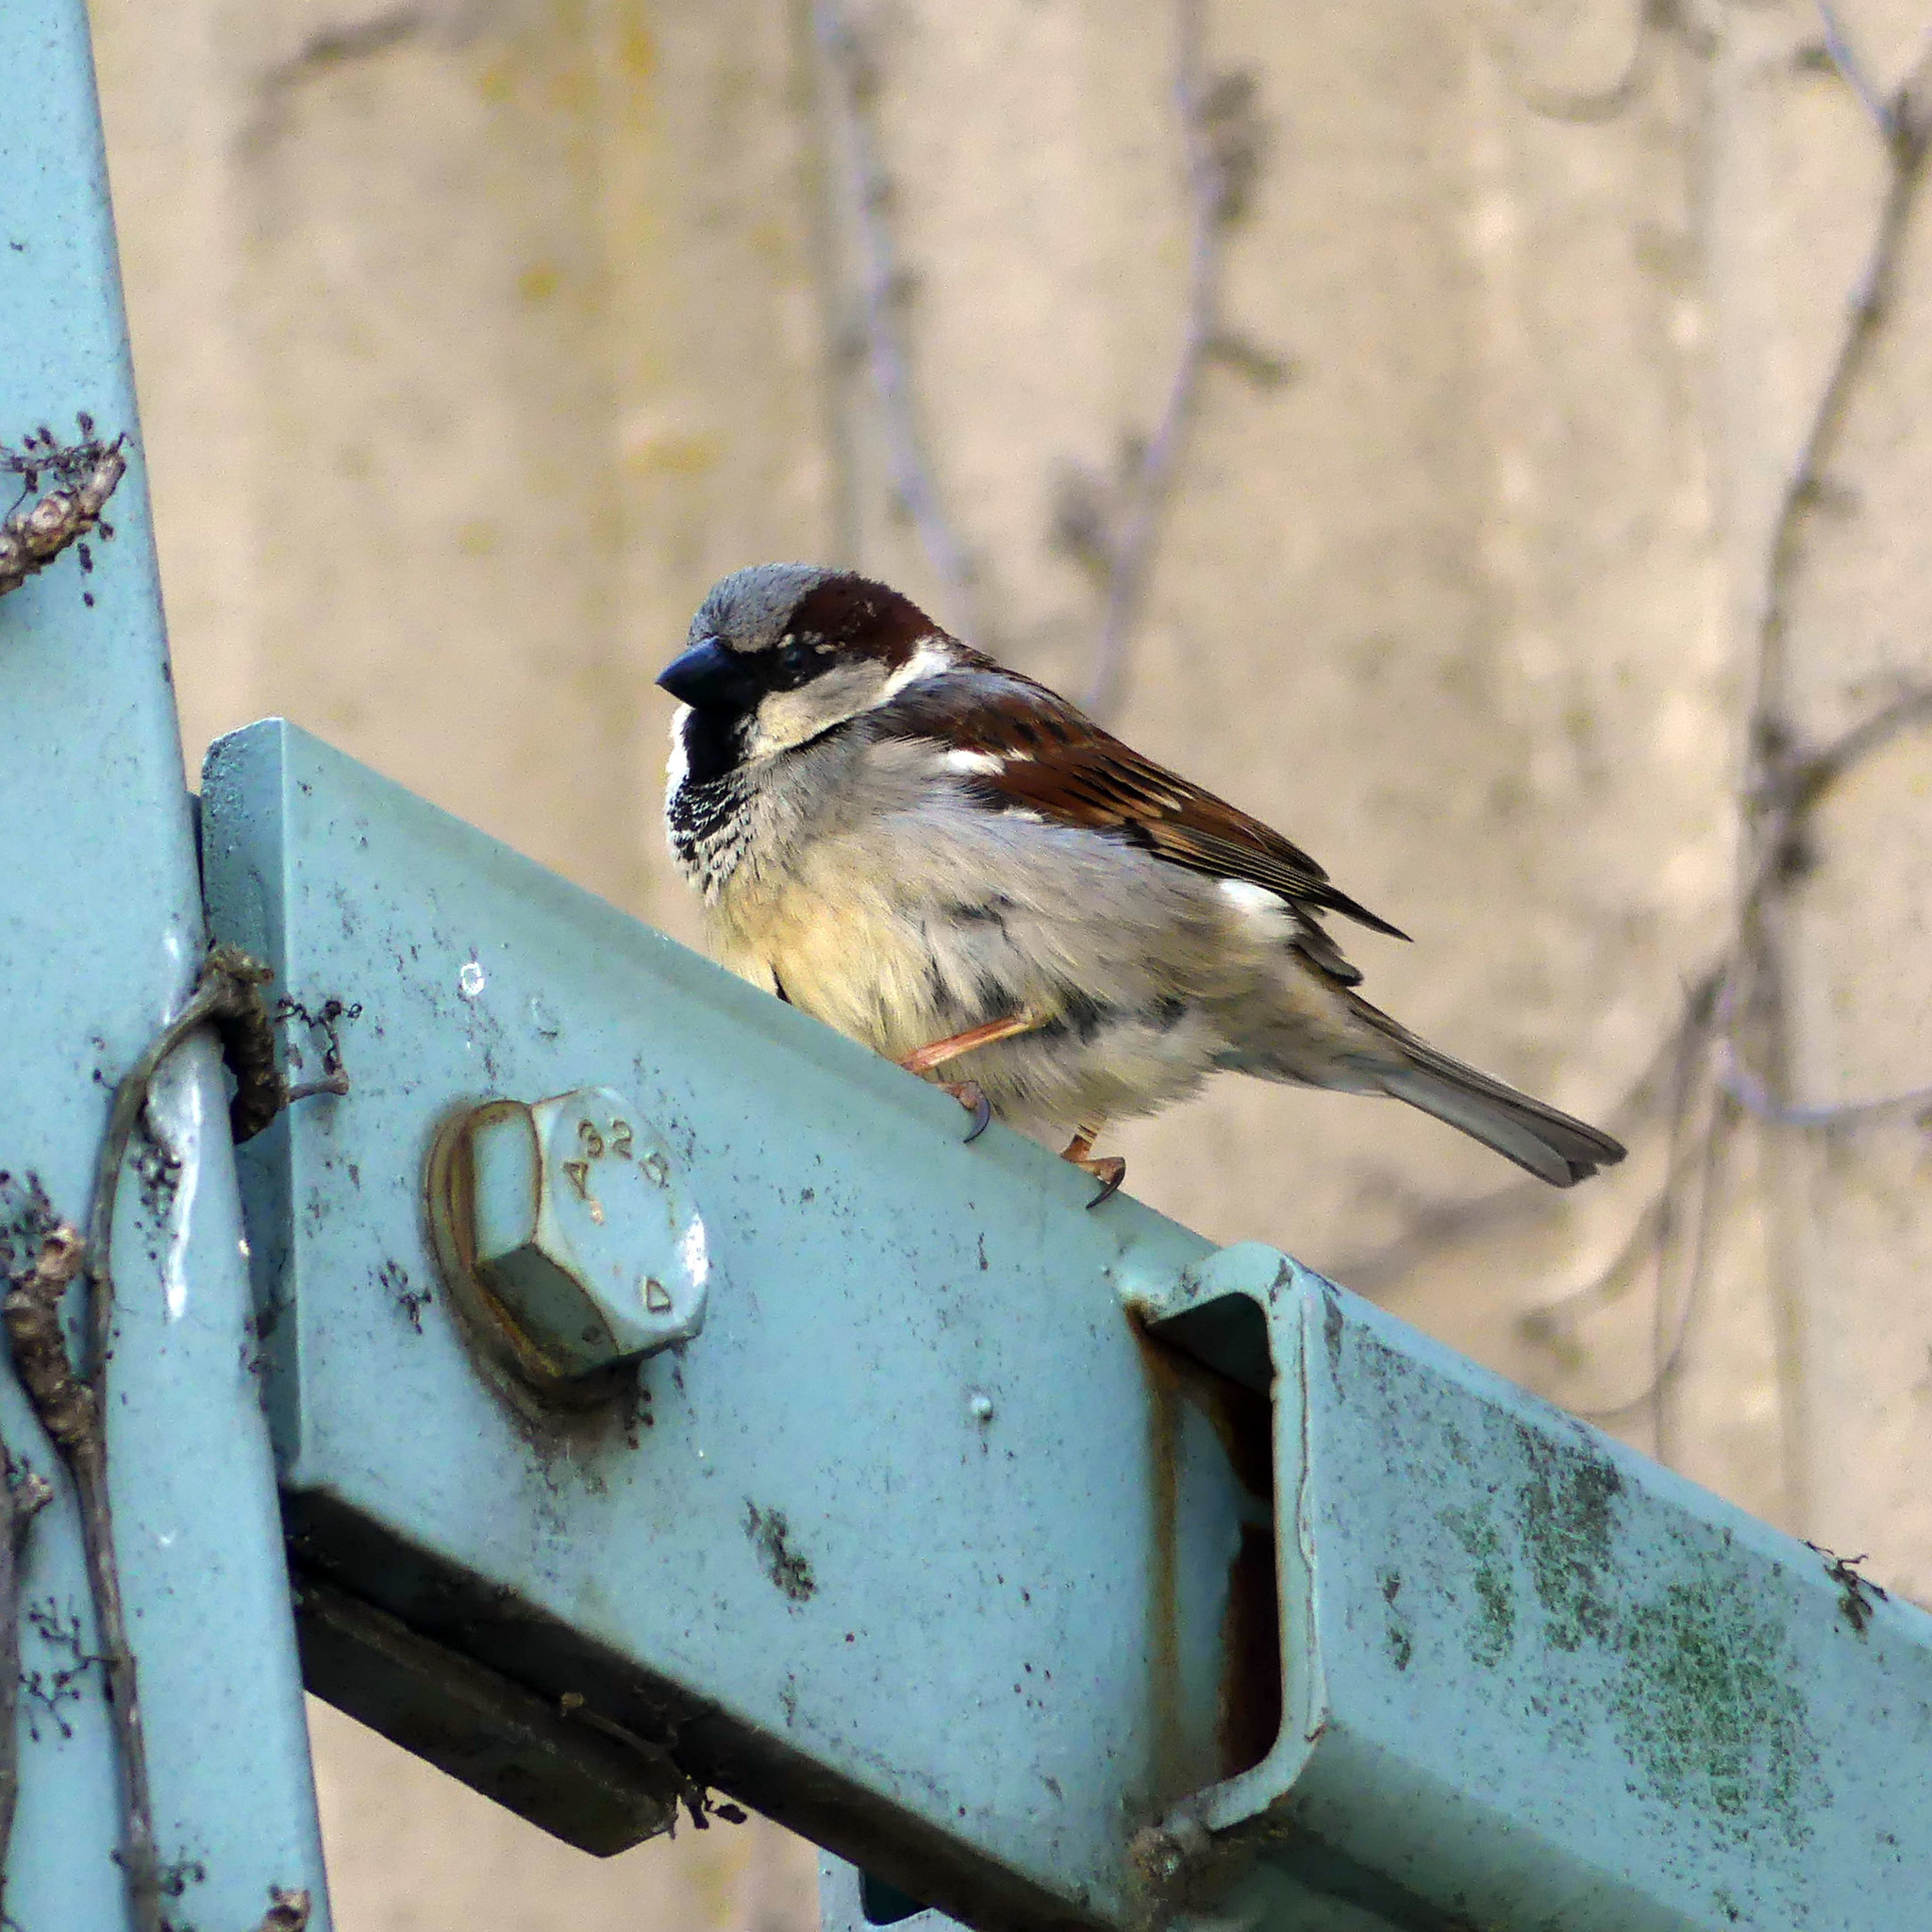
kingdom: Animalia
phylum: Chordata
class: Aves
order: Passeriformes
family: Passeridae
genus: Passer
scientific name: Passer domesticus
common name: House sparrow
